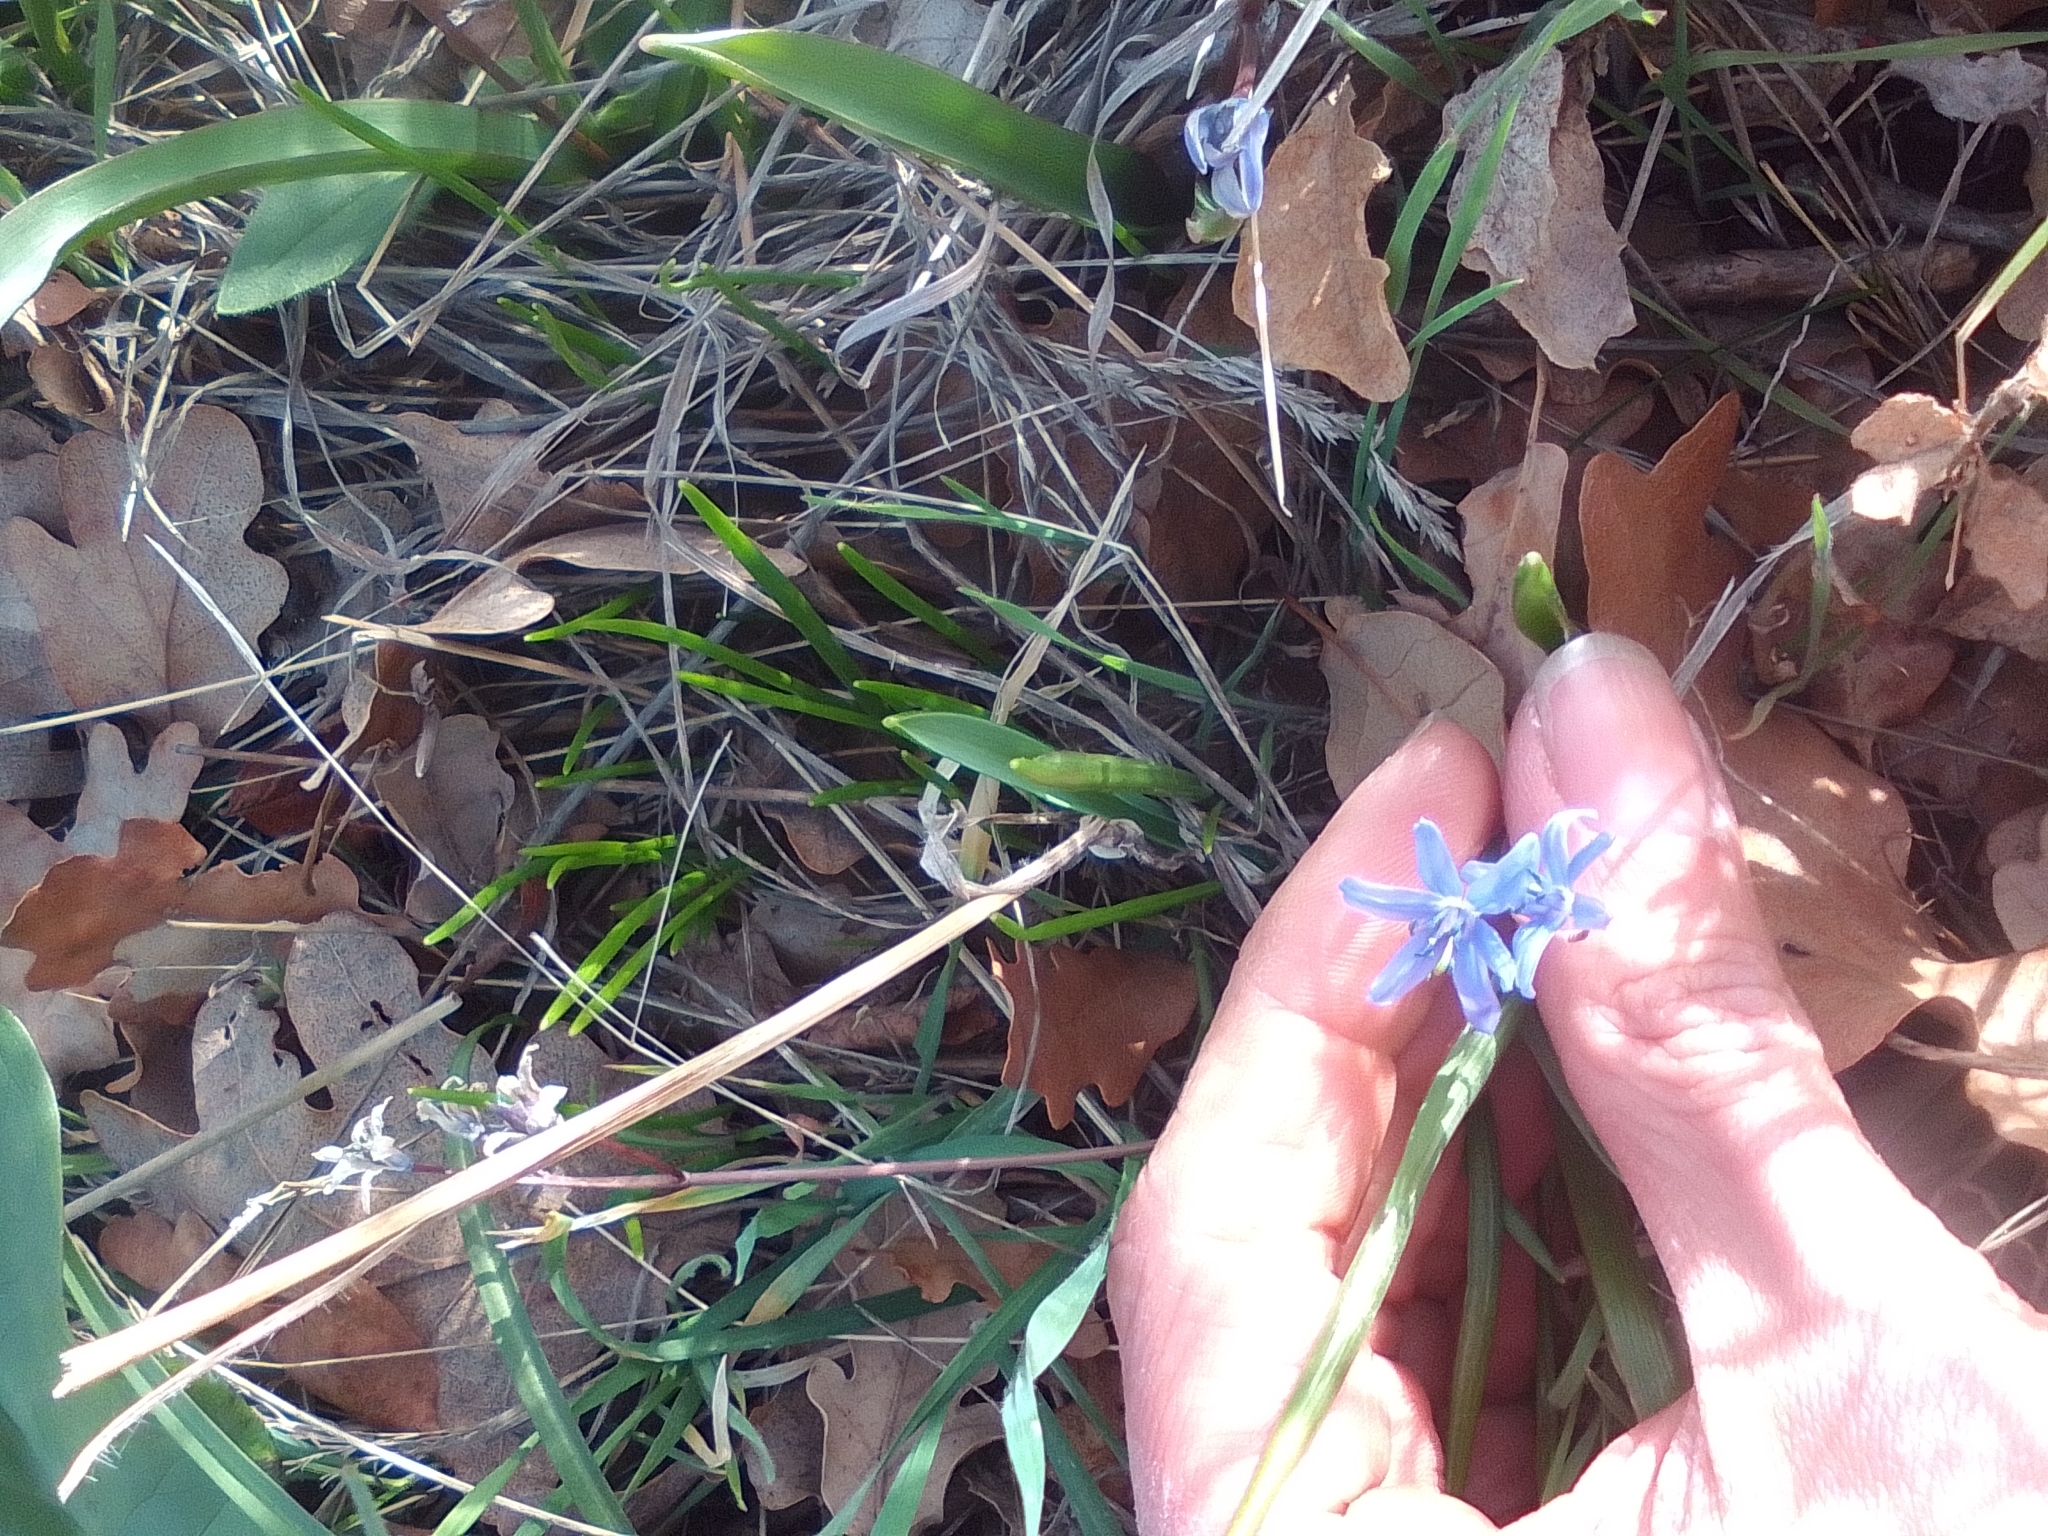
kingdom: Plantae
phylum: Tracheophyta
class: Liliopsida
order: Asparagales
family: Asparagaceae
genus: Scilla
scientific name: Scilla bifolia
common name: Alpine squill
